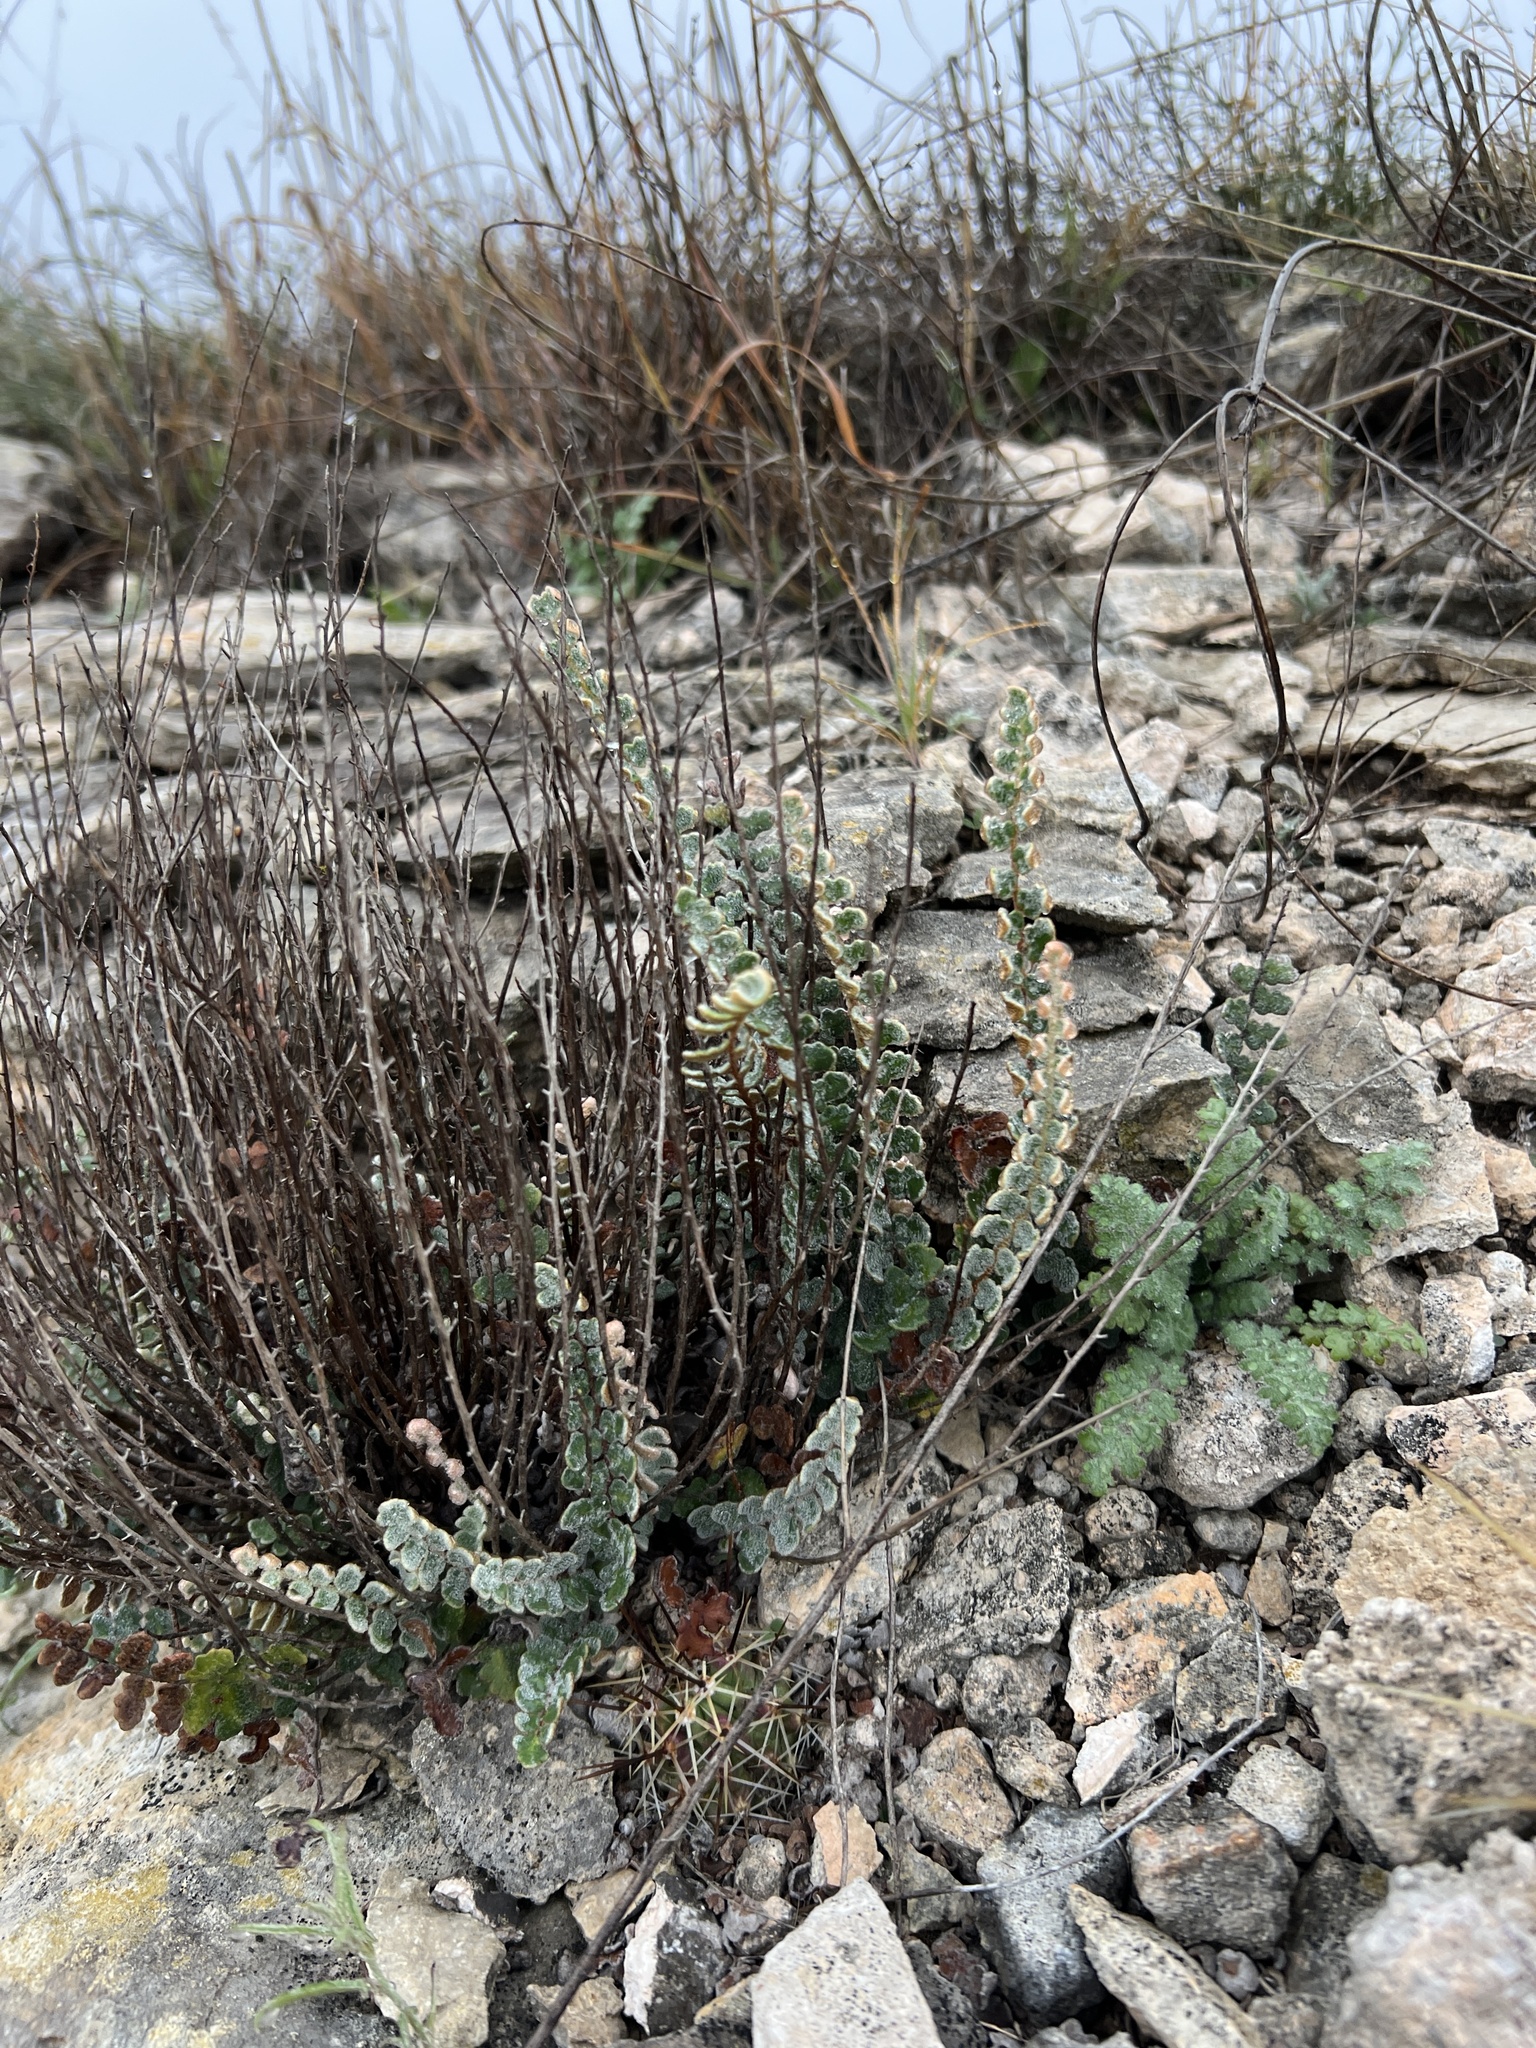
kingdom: Plantae
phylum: Tracheophyta
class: Polypodiopsida
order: Polypodiales
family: Pteridaceae
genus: Astrolepis
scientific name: Astrolepis integerrima
